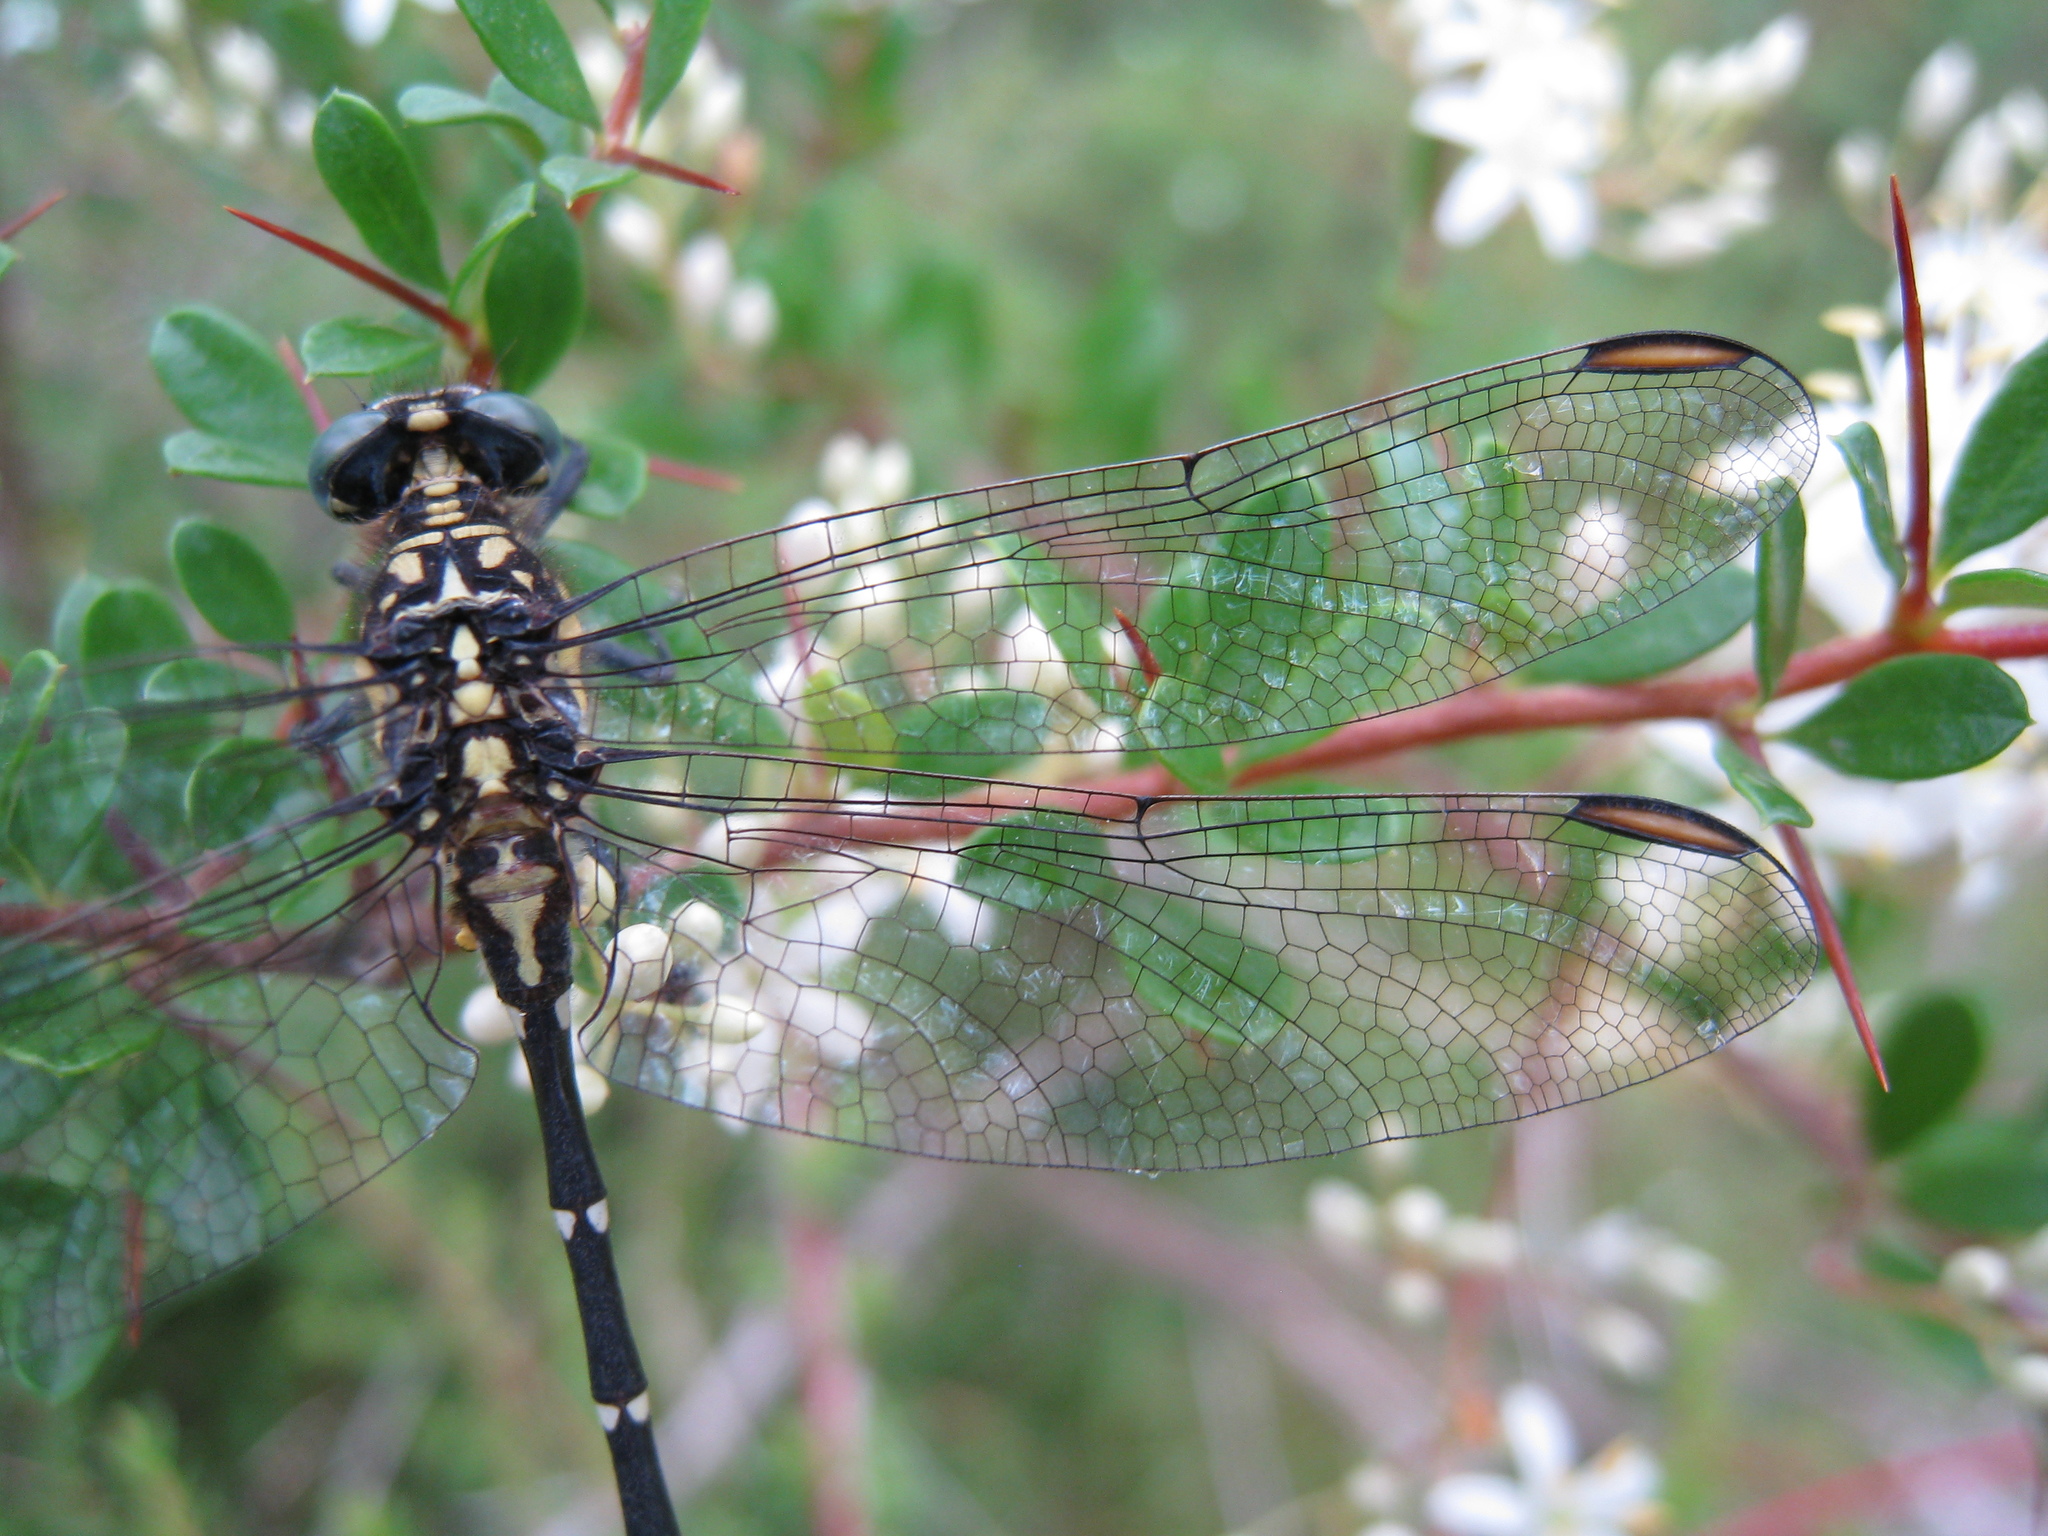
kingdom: Animalia
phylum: Arthropoda
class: Insecta
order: Odonata
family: Gomphidae
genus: Hemigomphus
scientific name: Hemigomphus gouldii
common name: Southern vicetail
